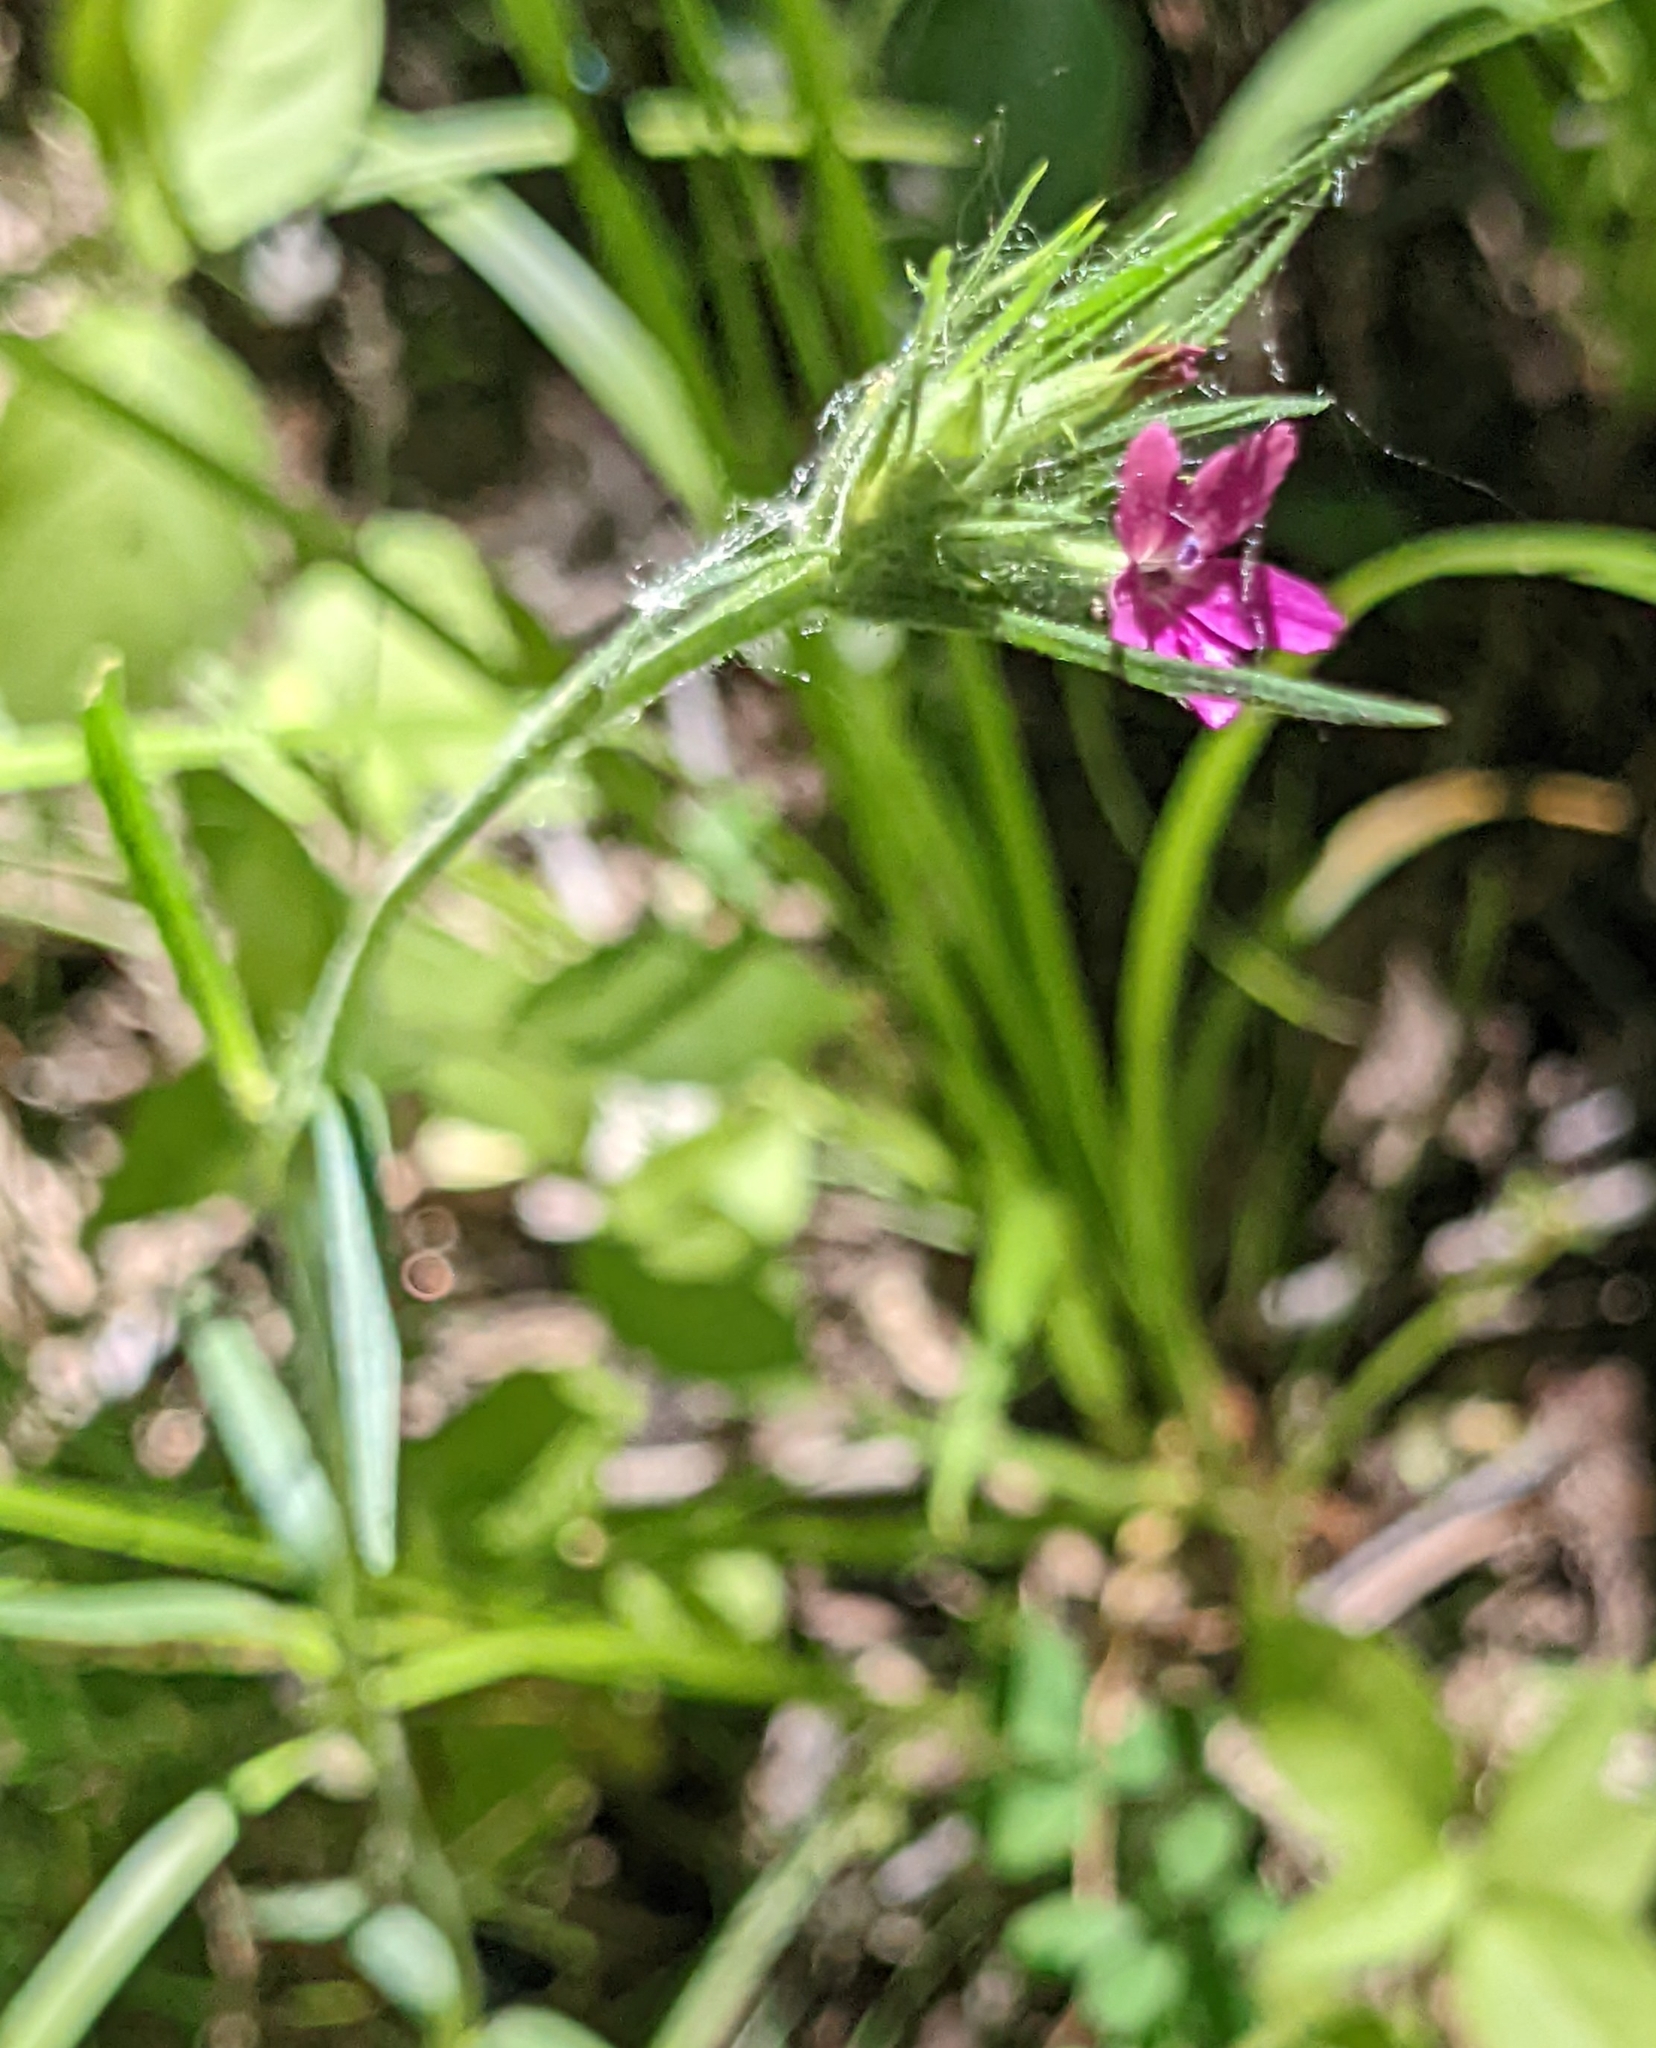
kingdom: Plantae
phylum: Tracheophyta
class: Magnoliopsida
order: Caryophyllales
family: Caryophyllaceae
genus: Dianthus
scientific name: Dianthus armeria
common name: Deptford pink
